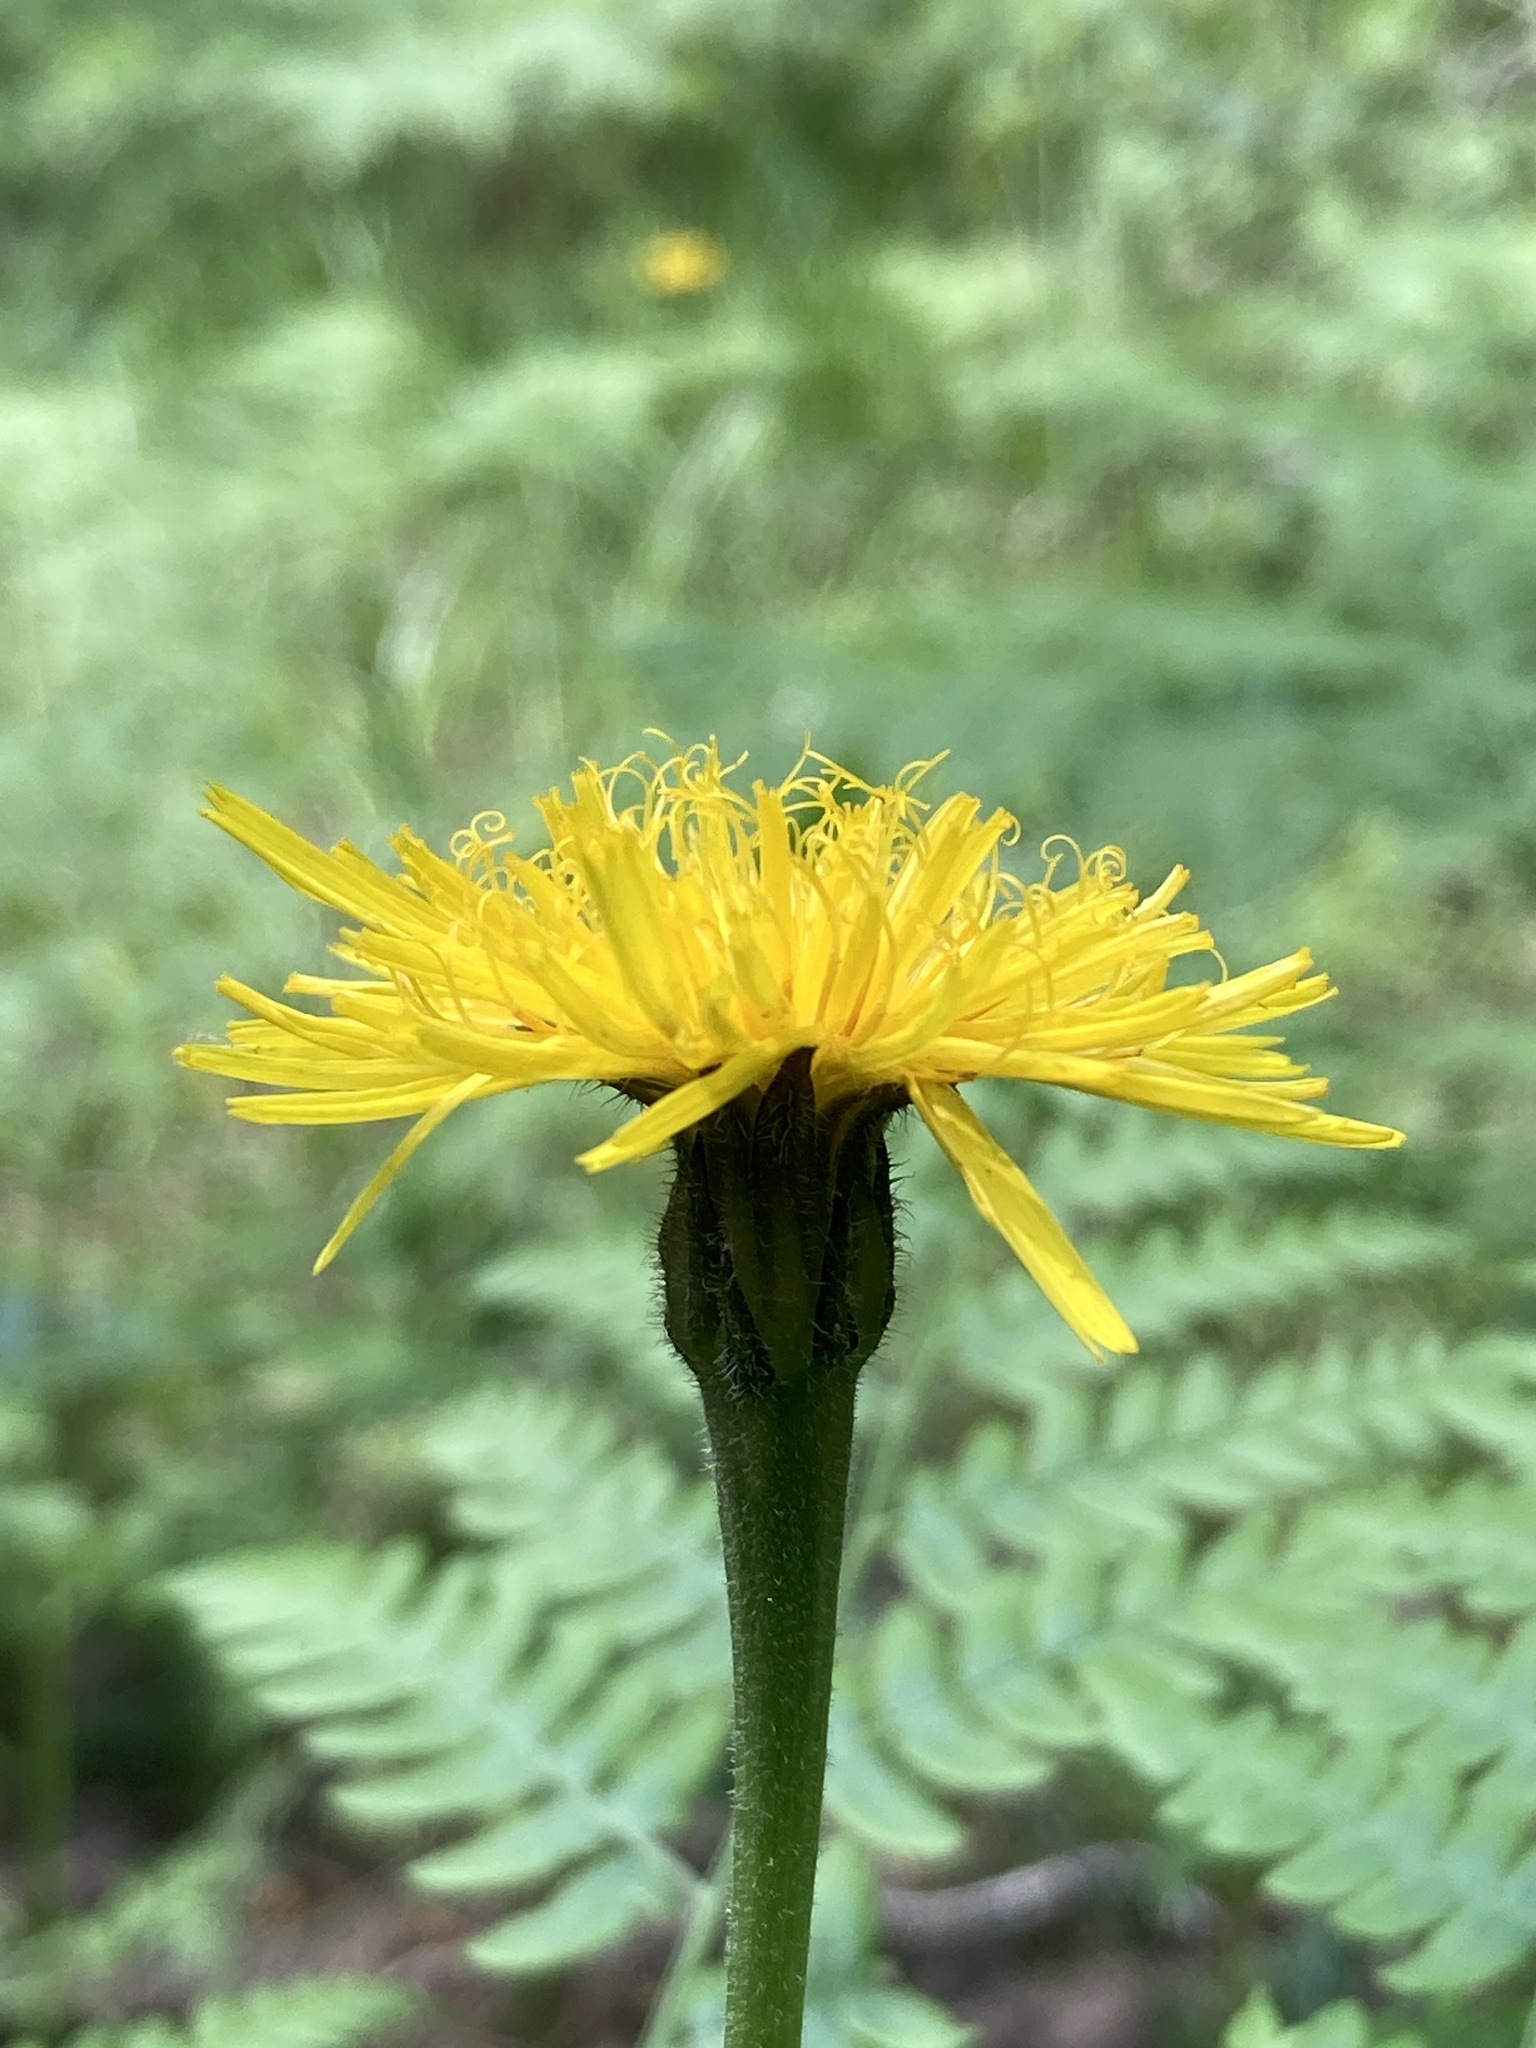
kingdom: Plantae
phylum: Tracheophyta
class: Magnoliopsida
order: Asterales
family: Asteraceae
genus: Leontodon
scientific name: Leontodon hispidus
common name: Rough hawkbit
